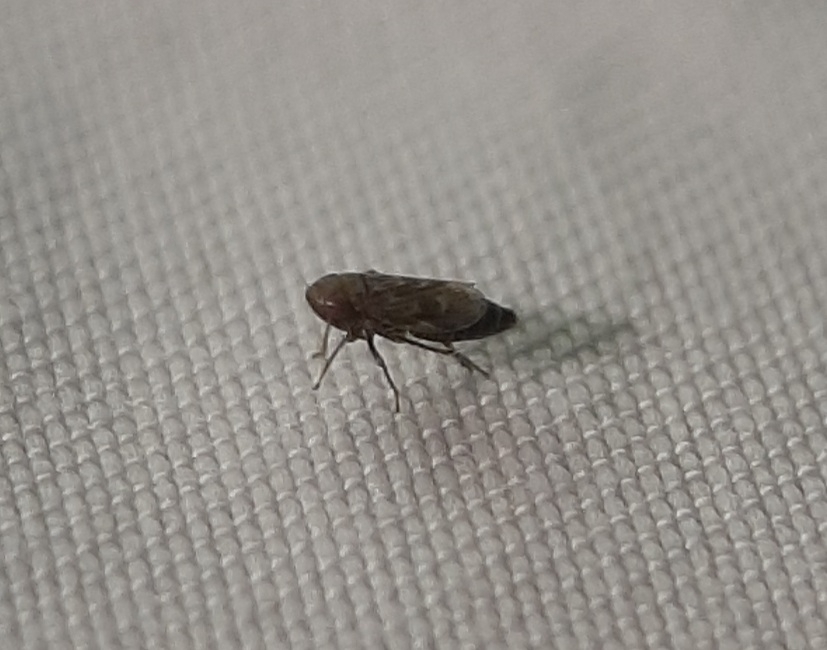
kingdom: Animalia
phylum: Arthropoda
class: Insecta
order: Hemiptera
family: Cicadellidae
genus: Deltocephalus
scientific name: Deltocephalus pulicaris
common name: Leafhopper
